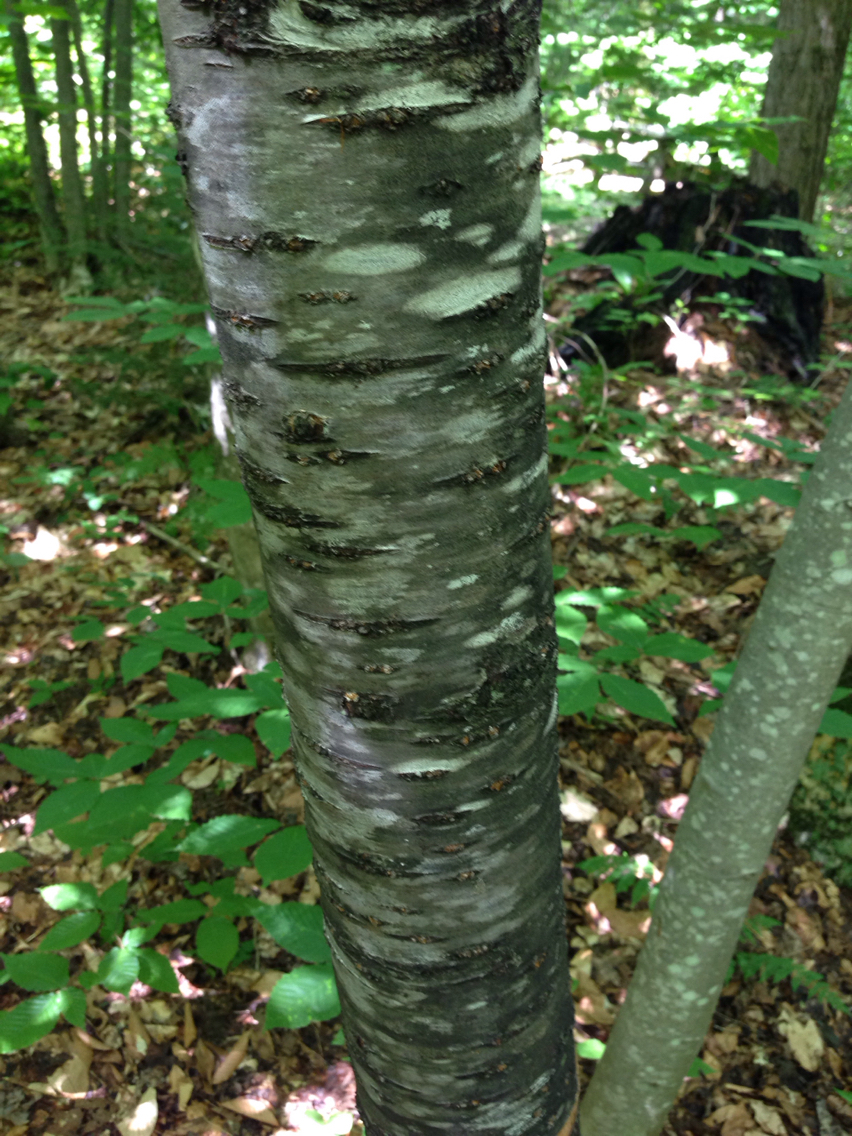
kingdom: Plantae
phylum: Tracheophyta
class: Magnoliopsida
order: Rosales
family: Rosaceae
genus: Prunus
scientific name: Prunus pensylvanica
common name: Pin cherry
